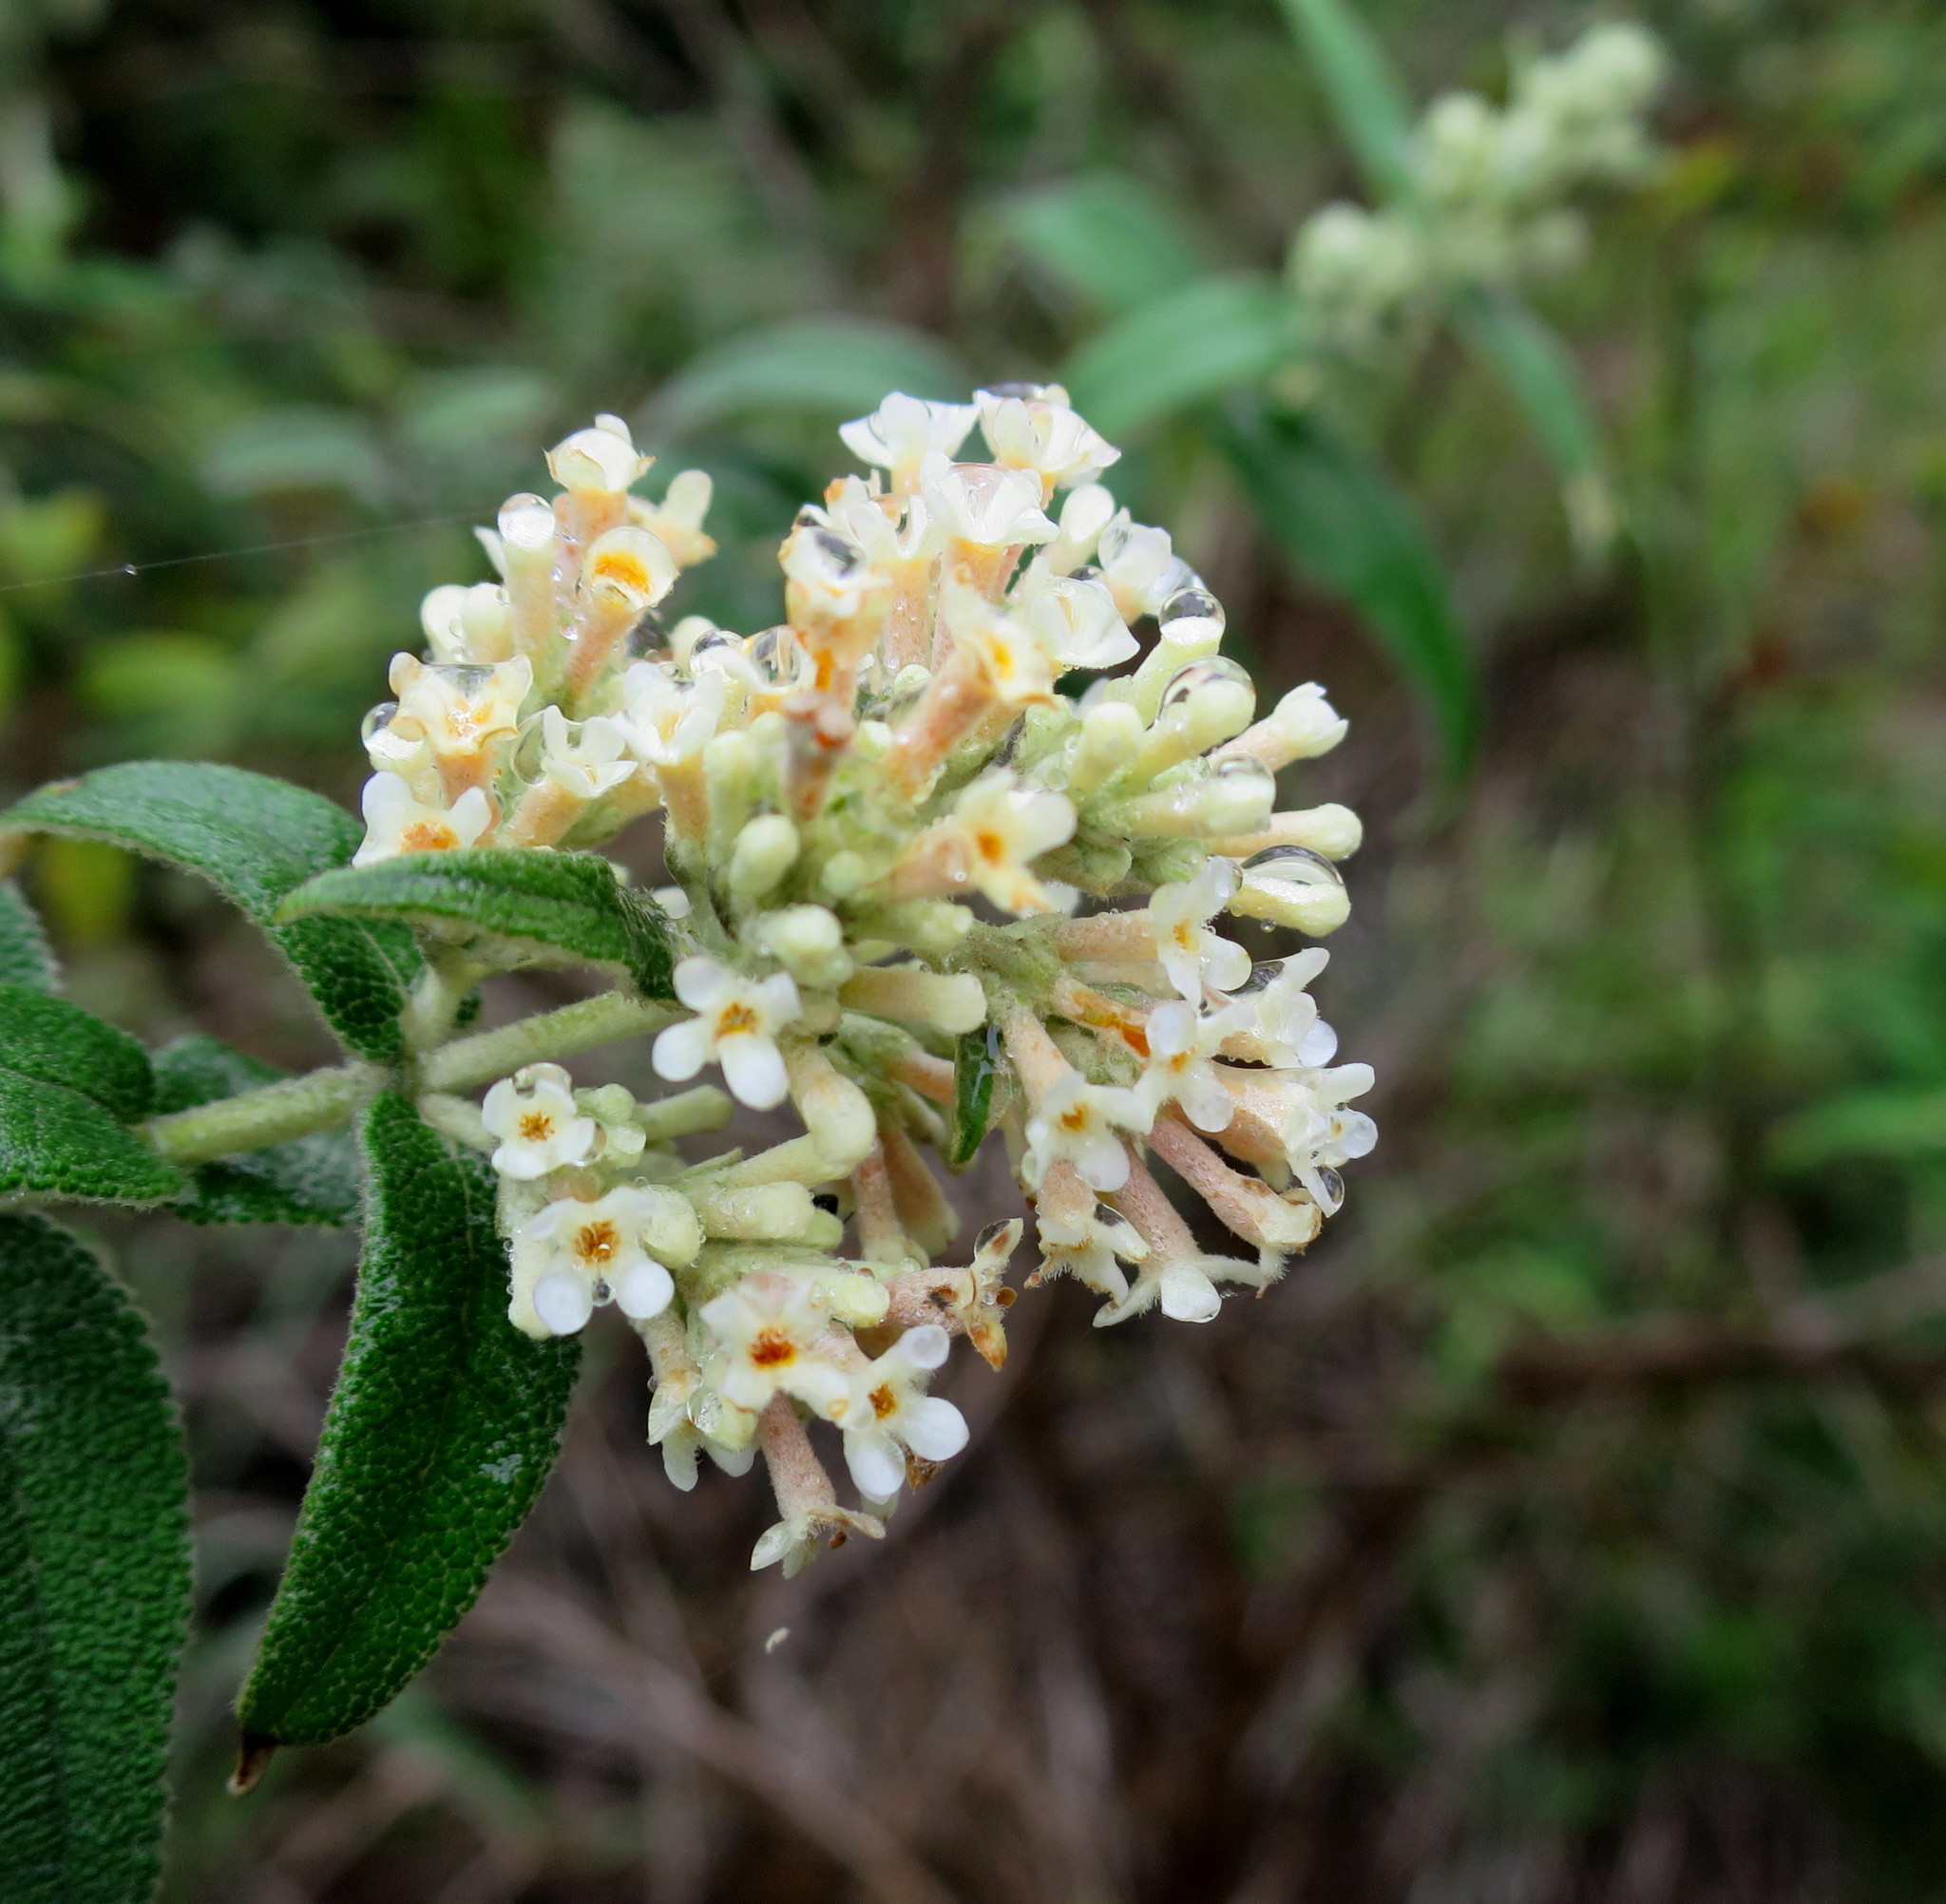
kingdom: Plantae
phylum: Tracheophyta
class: Magnoliopsida
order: Lamiales
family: Scrophulariaceae
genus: Buddleja
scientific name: Buddleja salviifolia
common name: Sagewood
